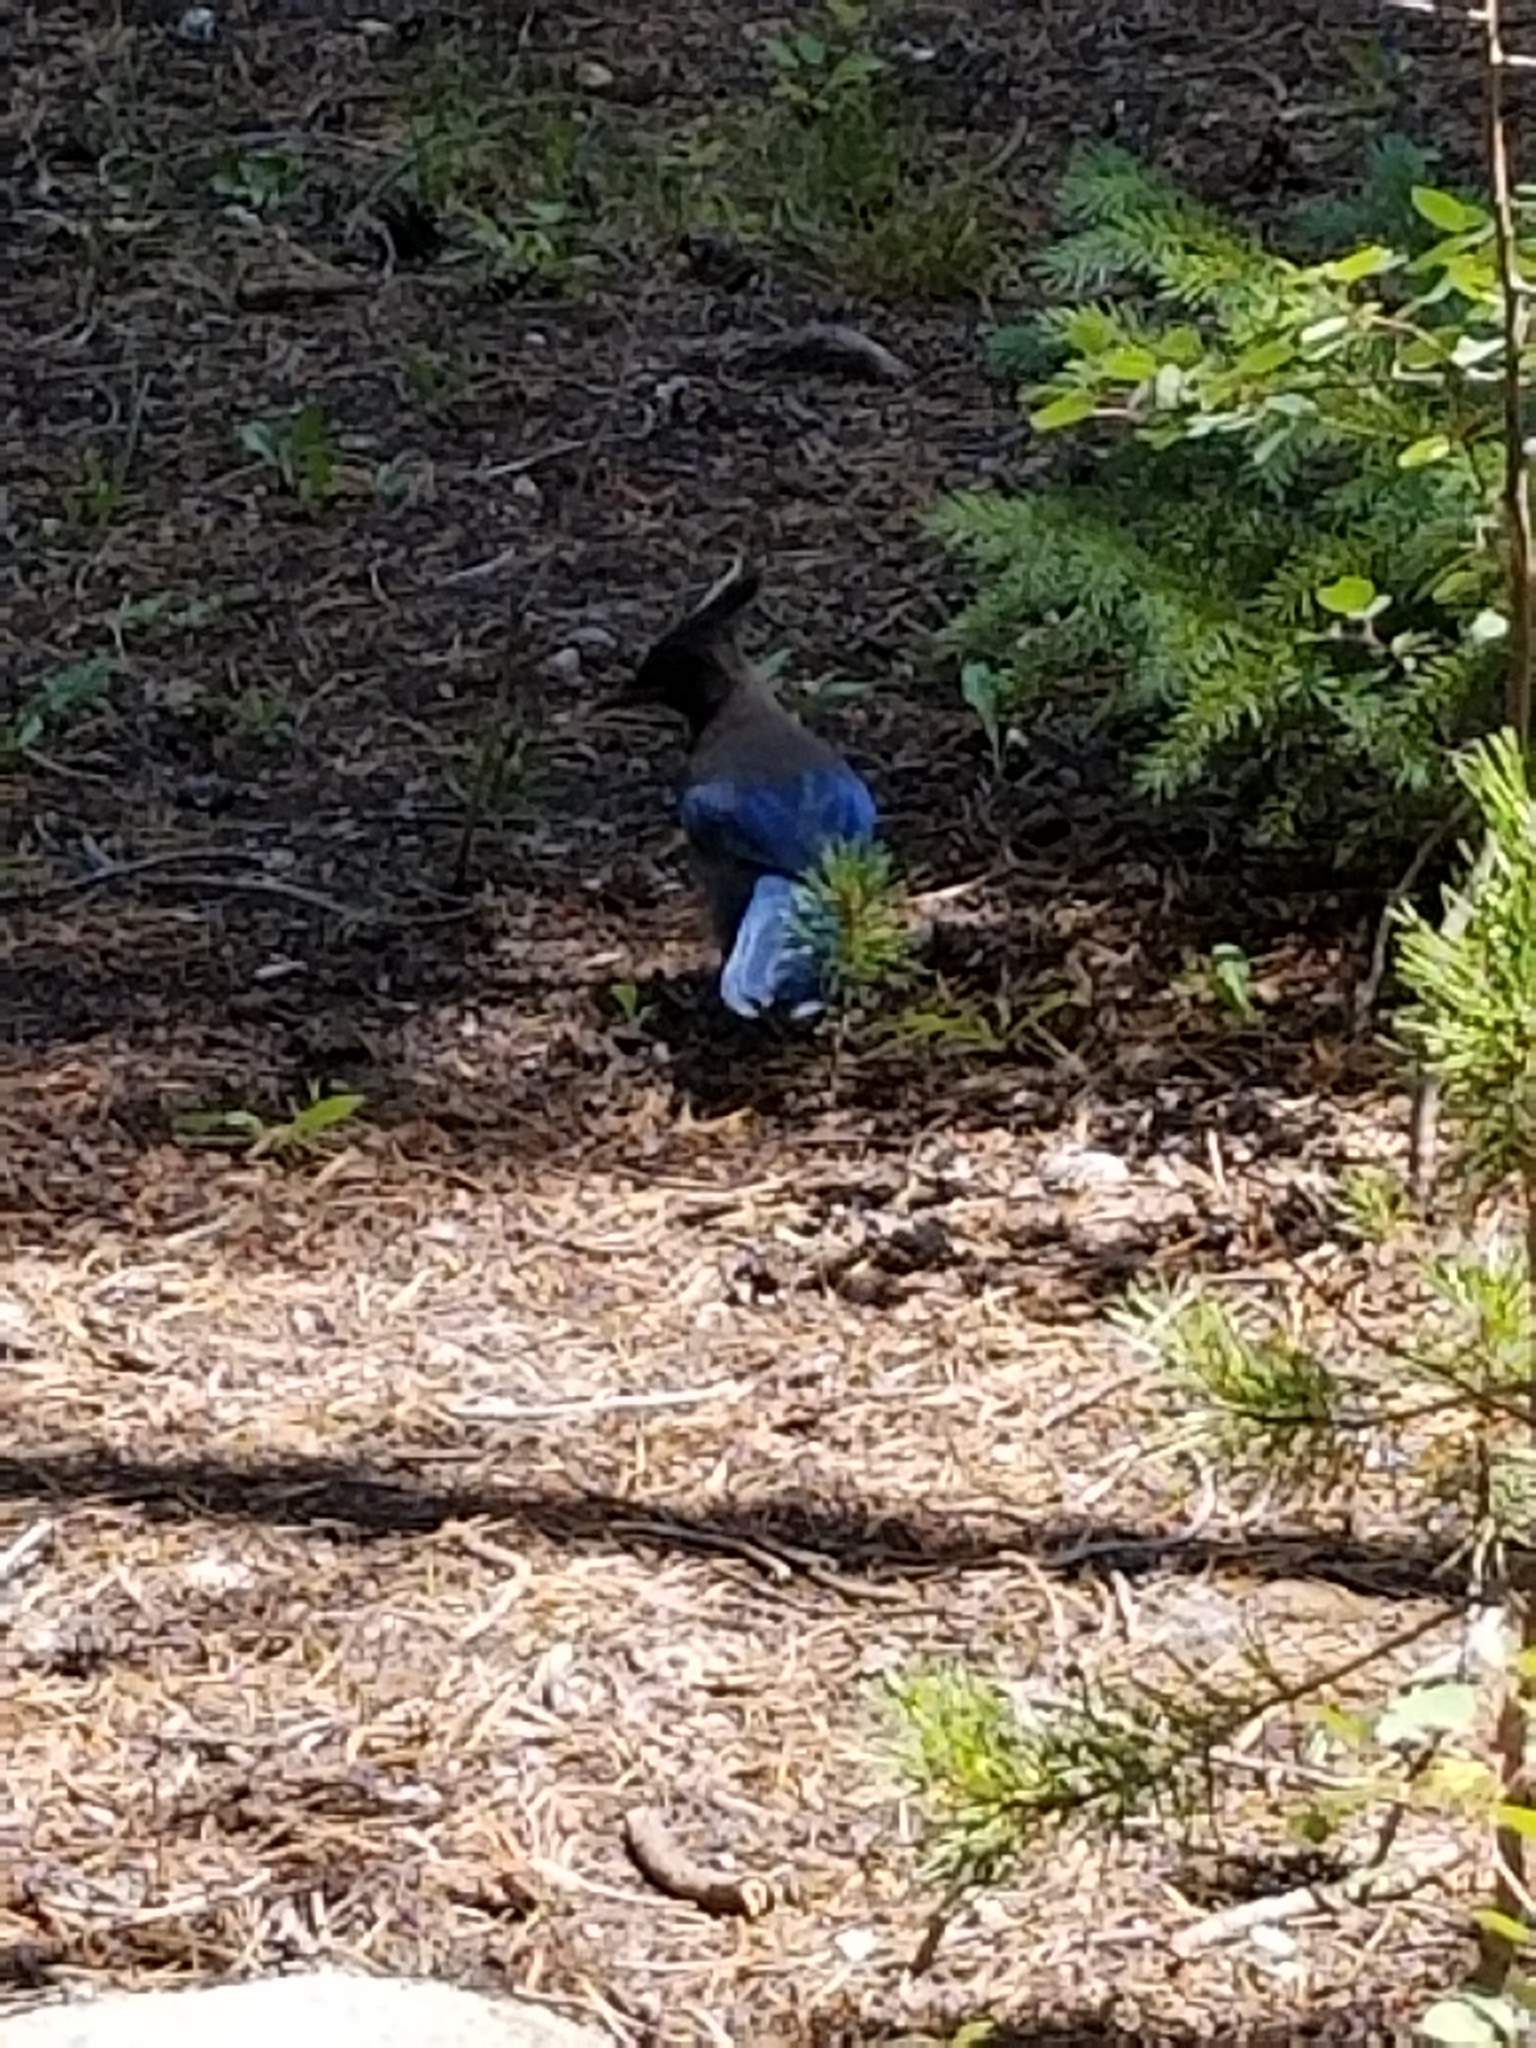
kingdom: Animalia
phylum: Chordata
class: Aves
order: Passeriformes
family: Corvidae
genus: Cyanocitta
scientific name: Cyanocitta stelleri
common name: Steller's jay
